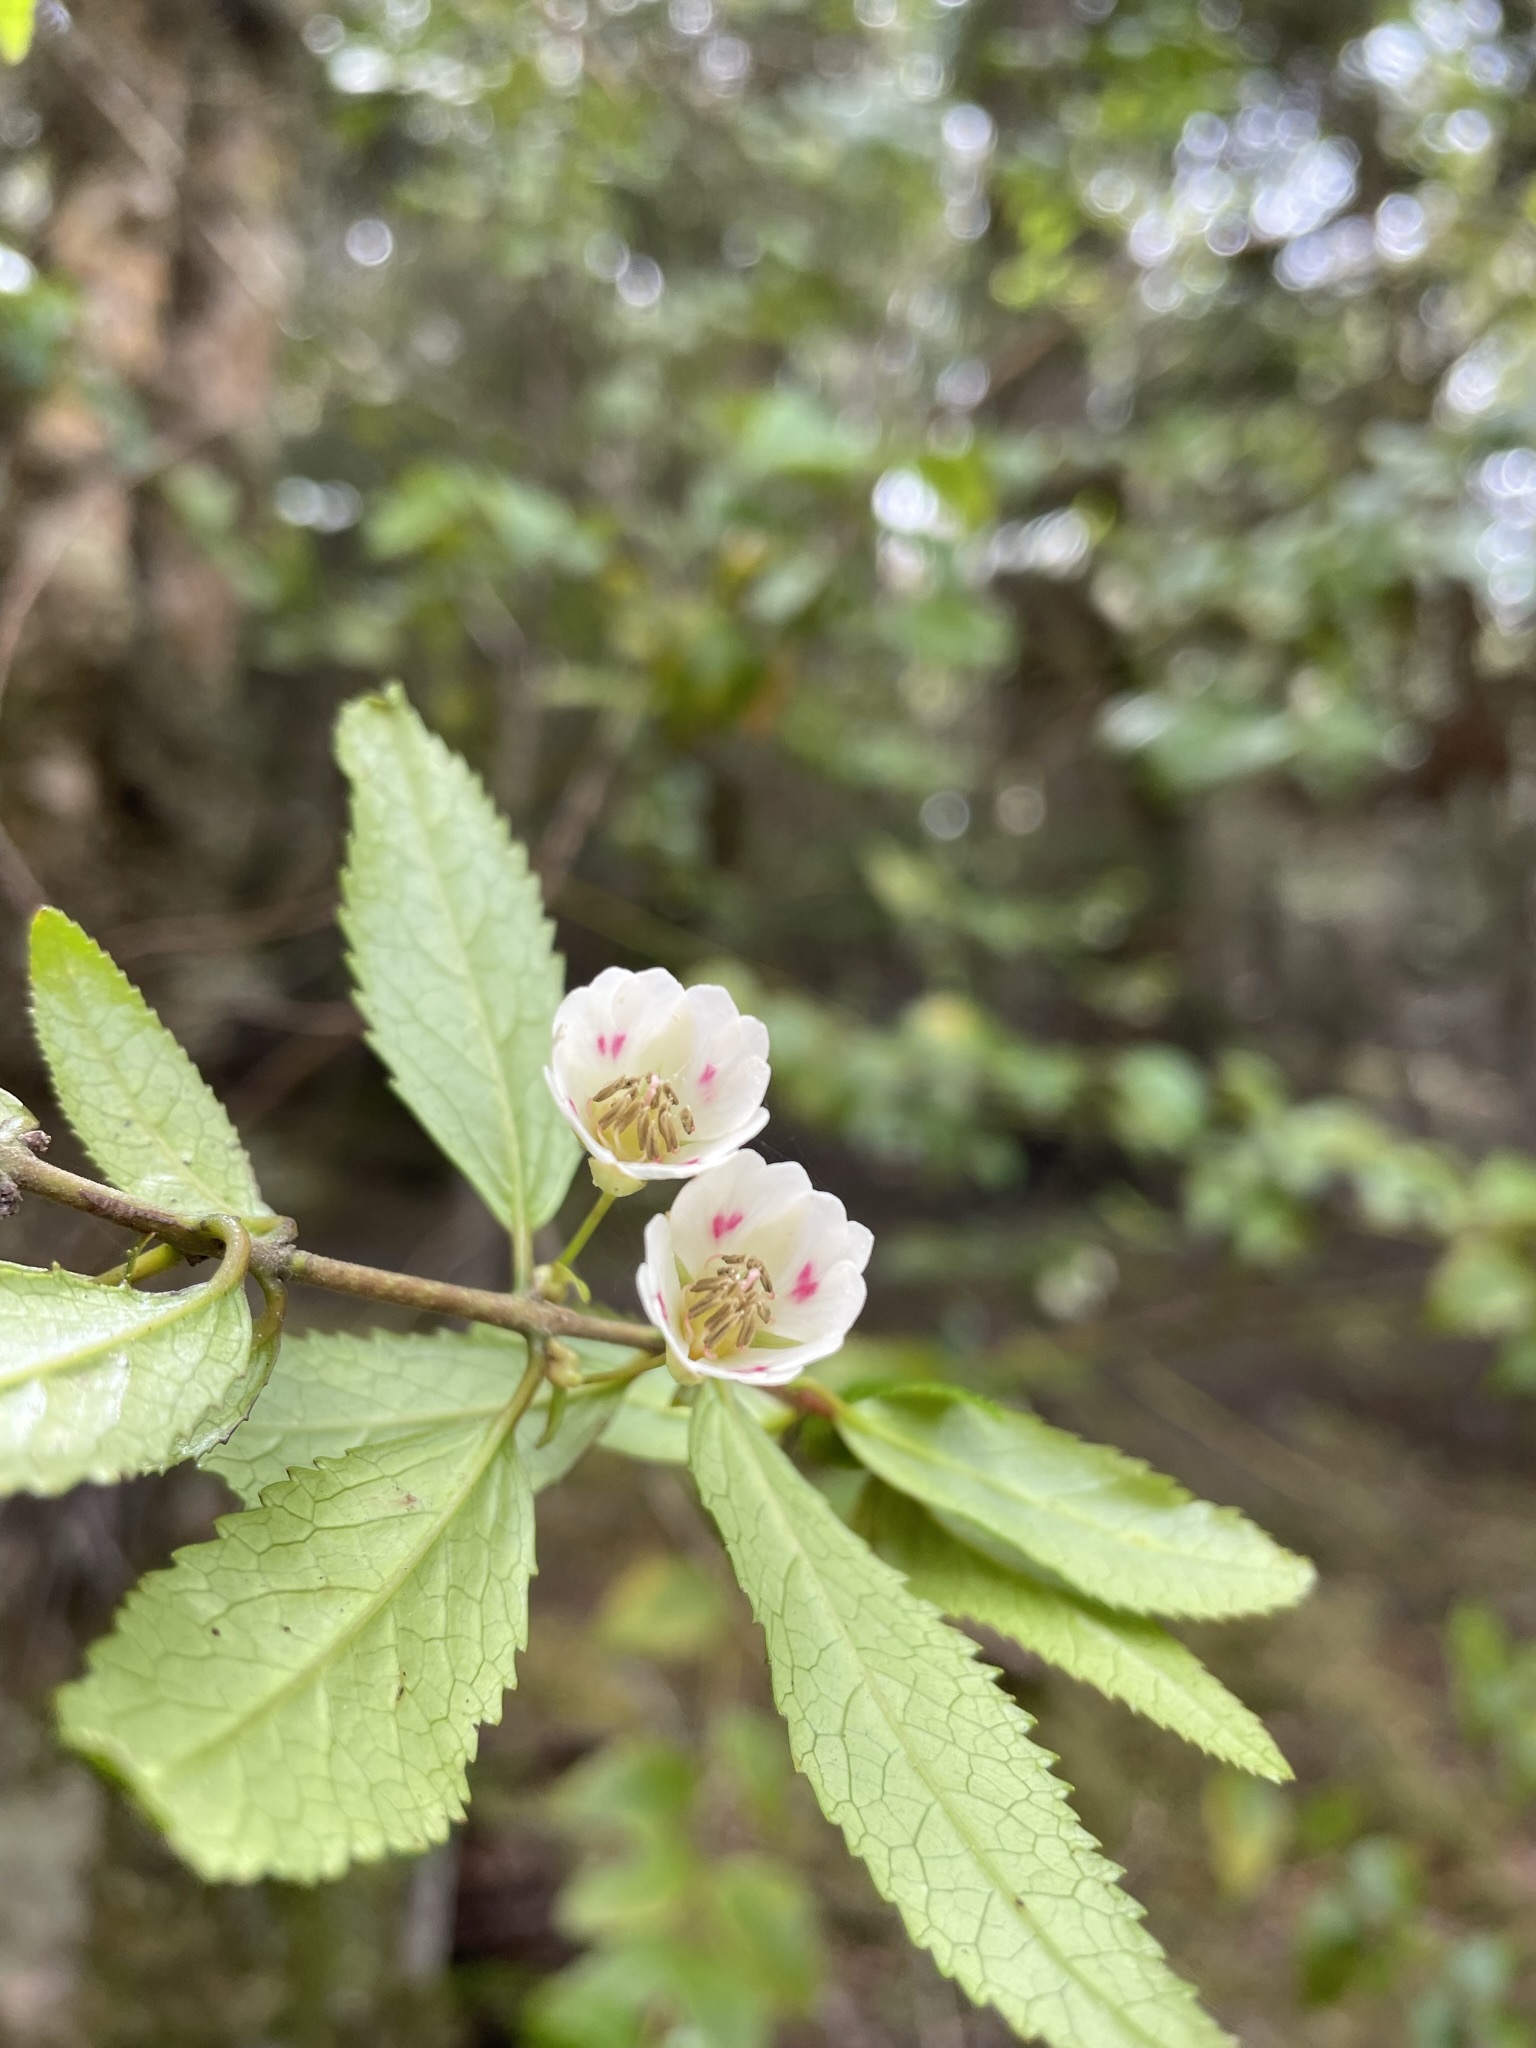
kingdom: Plantae
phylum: Tracheophyta
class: Magnoliopsida
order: Oxalidales
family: Elaeocarpaceae
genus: Aristotelia
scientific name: Aristotelia peduncularis
